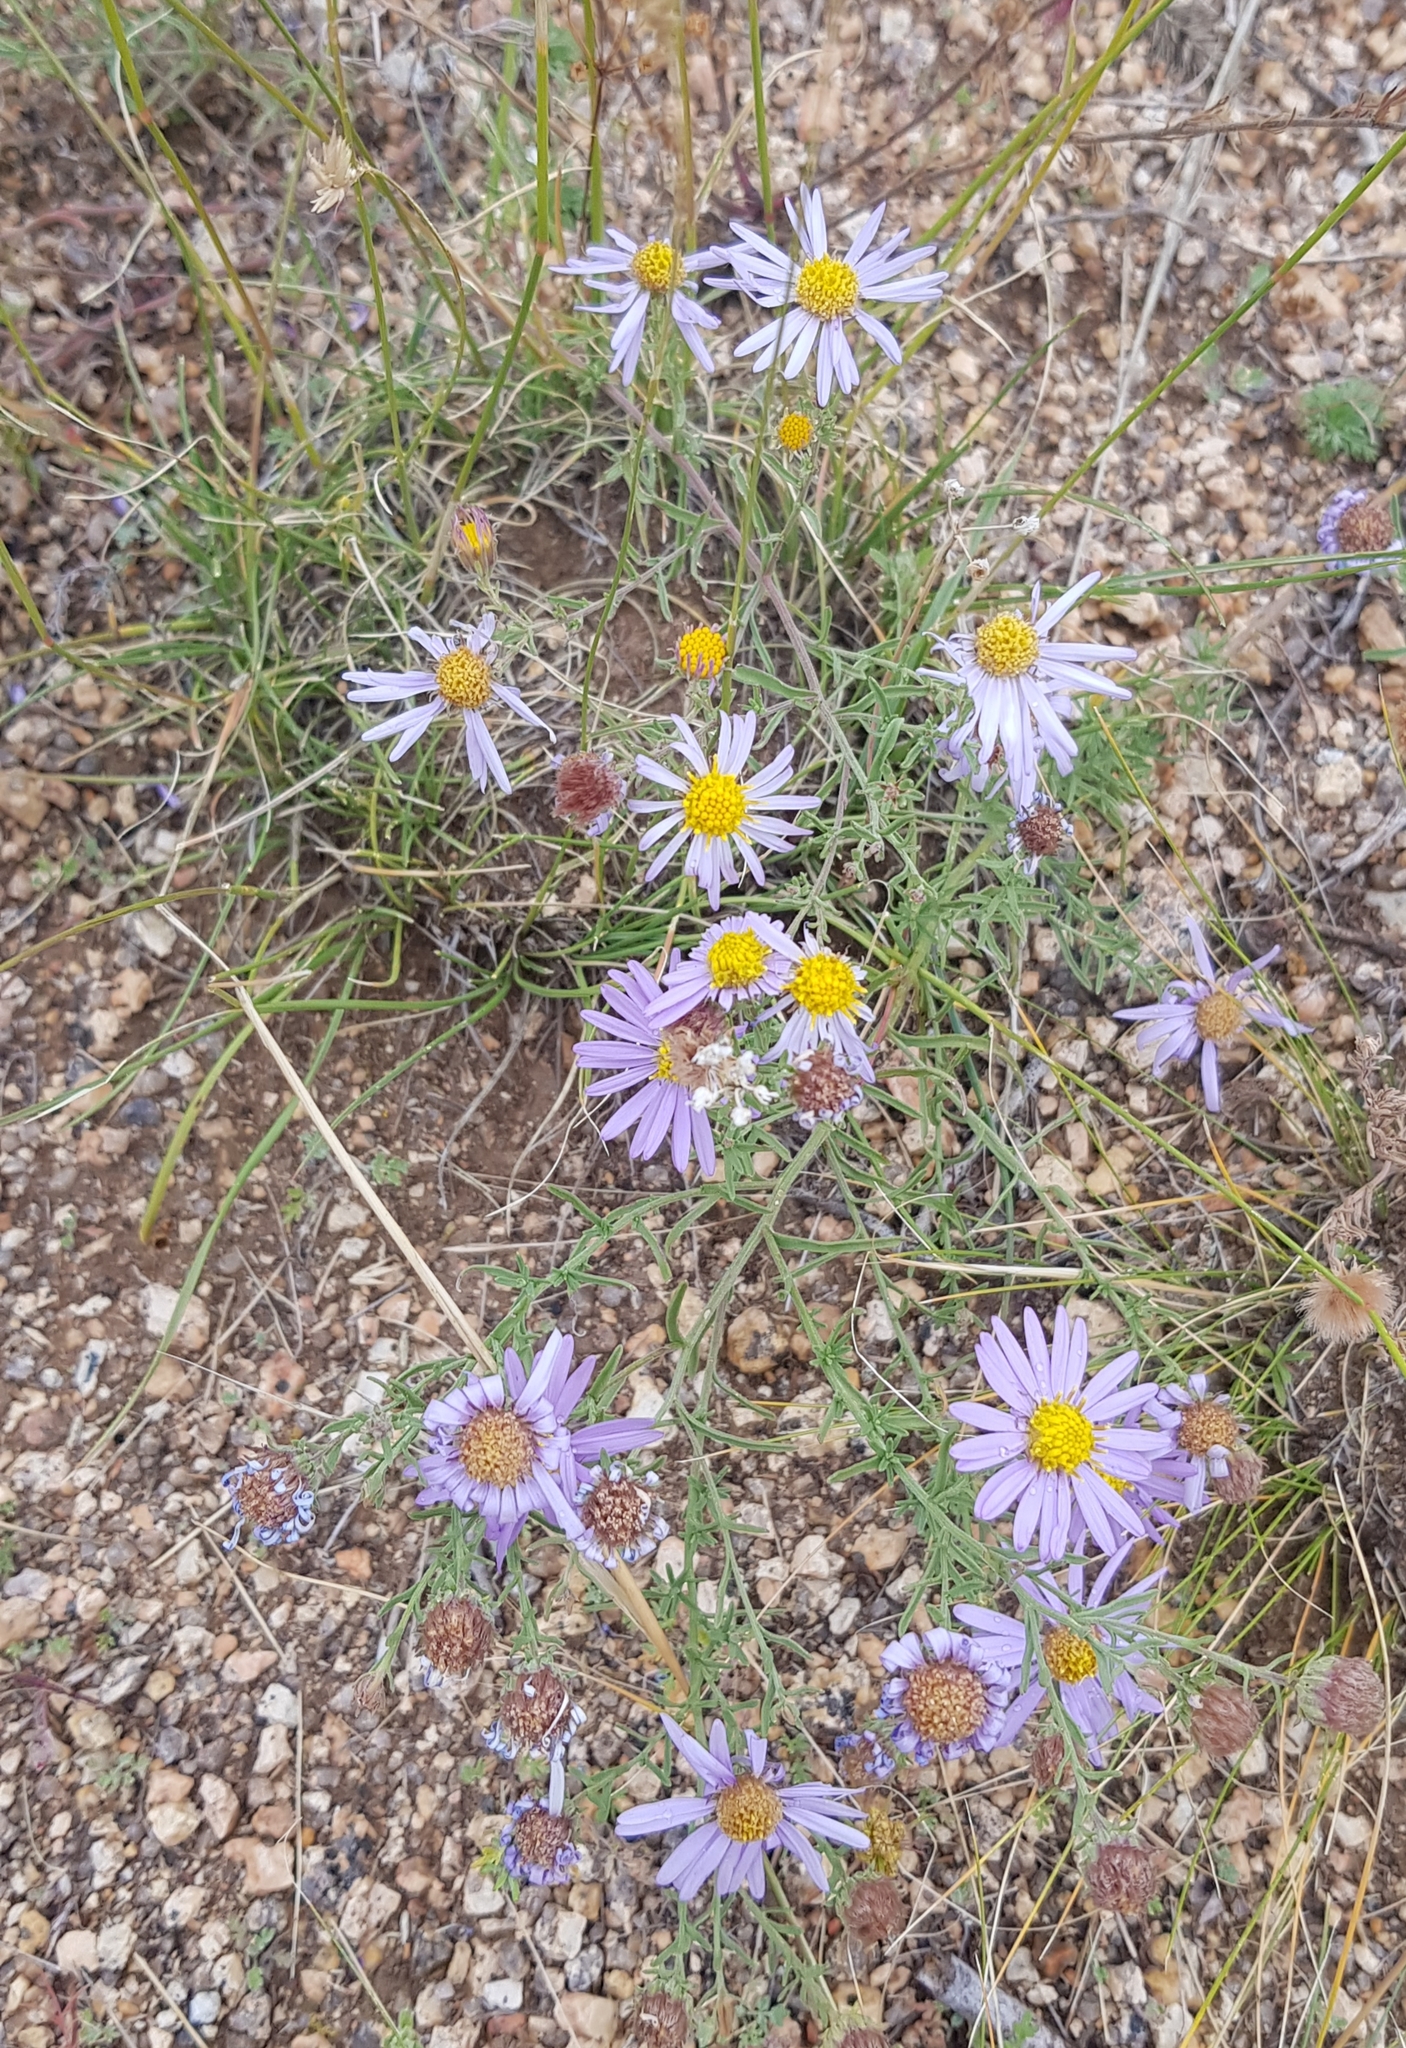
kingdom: Plantae
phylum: Tracheophyta
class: Magnoliopsida
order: Asterales
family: Asteraceae
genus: Heteropappus
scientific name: Heteropappus altaicus
